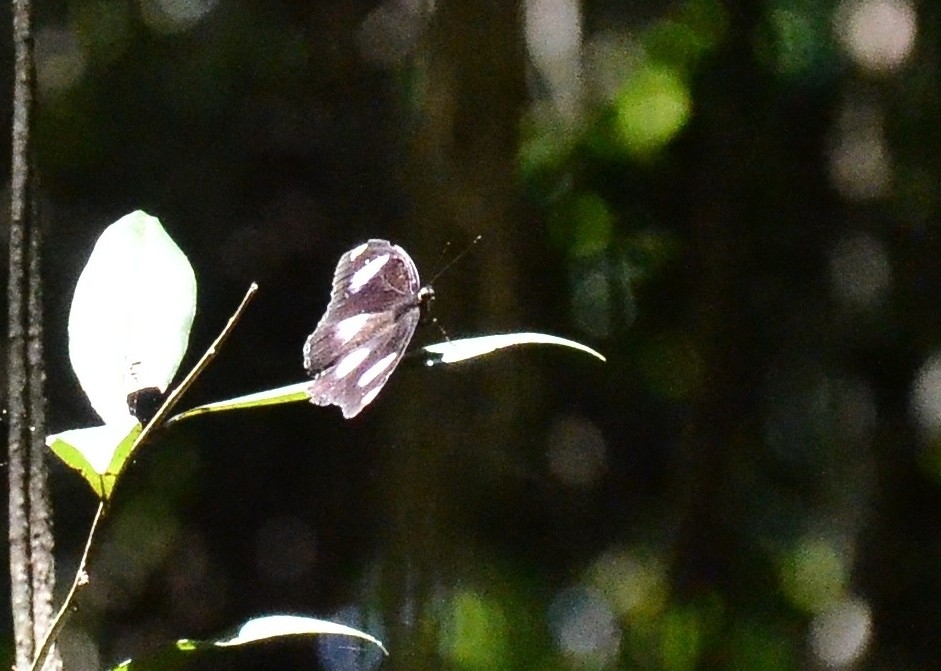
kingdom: Animalia
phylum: Arthropoda
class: Insecta
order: Lepidoptera
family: Nymphalidae
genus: Hypolimnas
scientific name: Hypolimnas misippus
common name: False plain tiger
